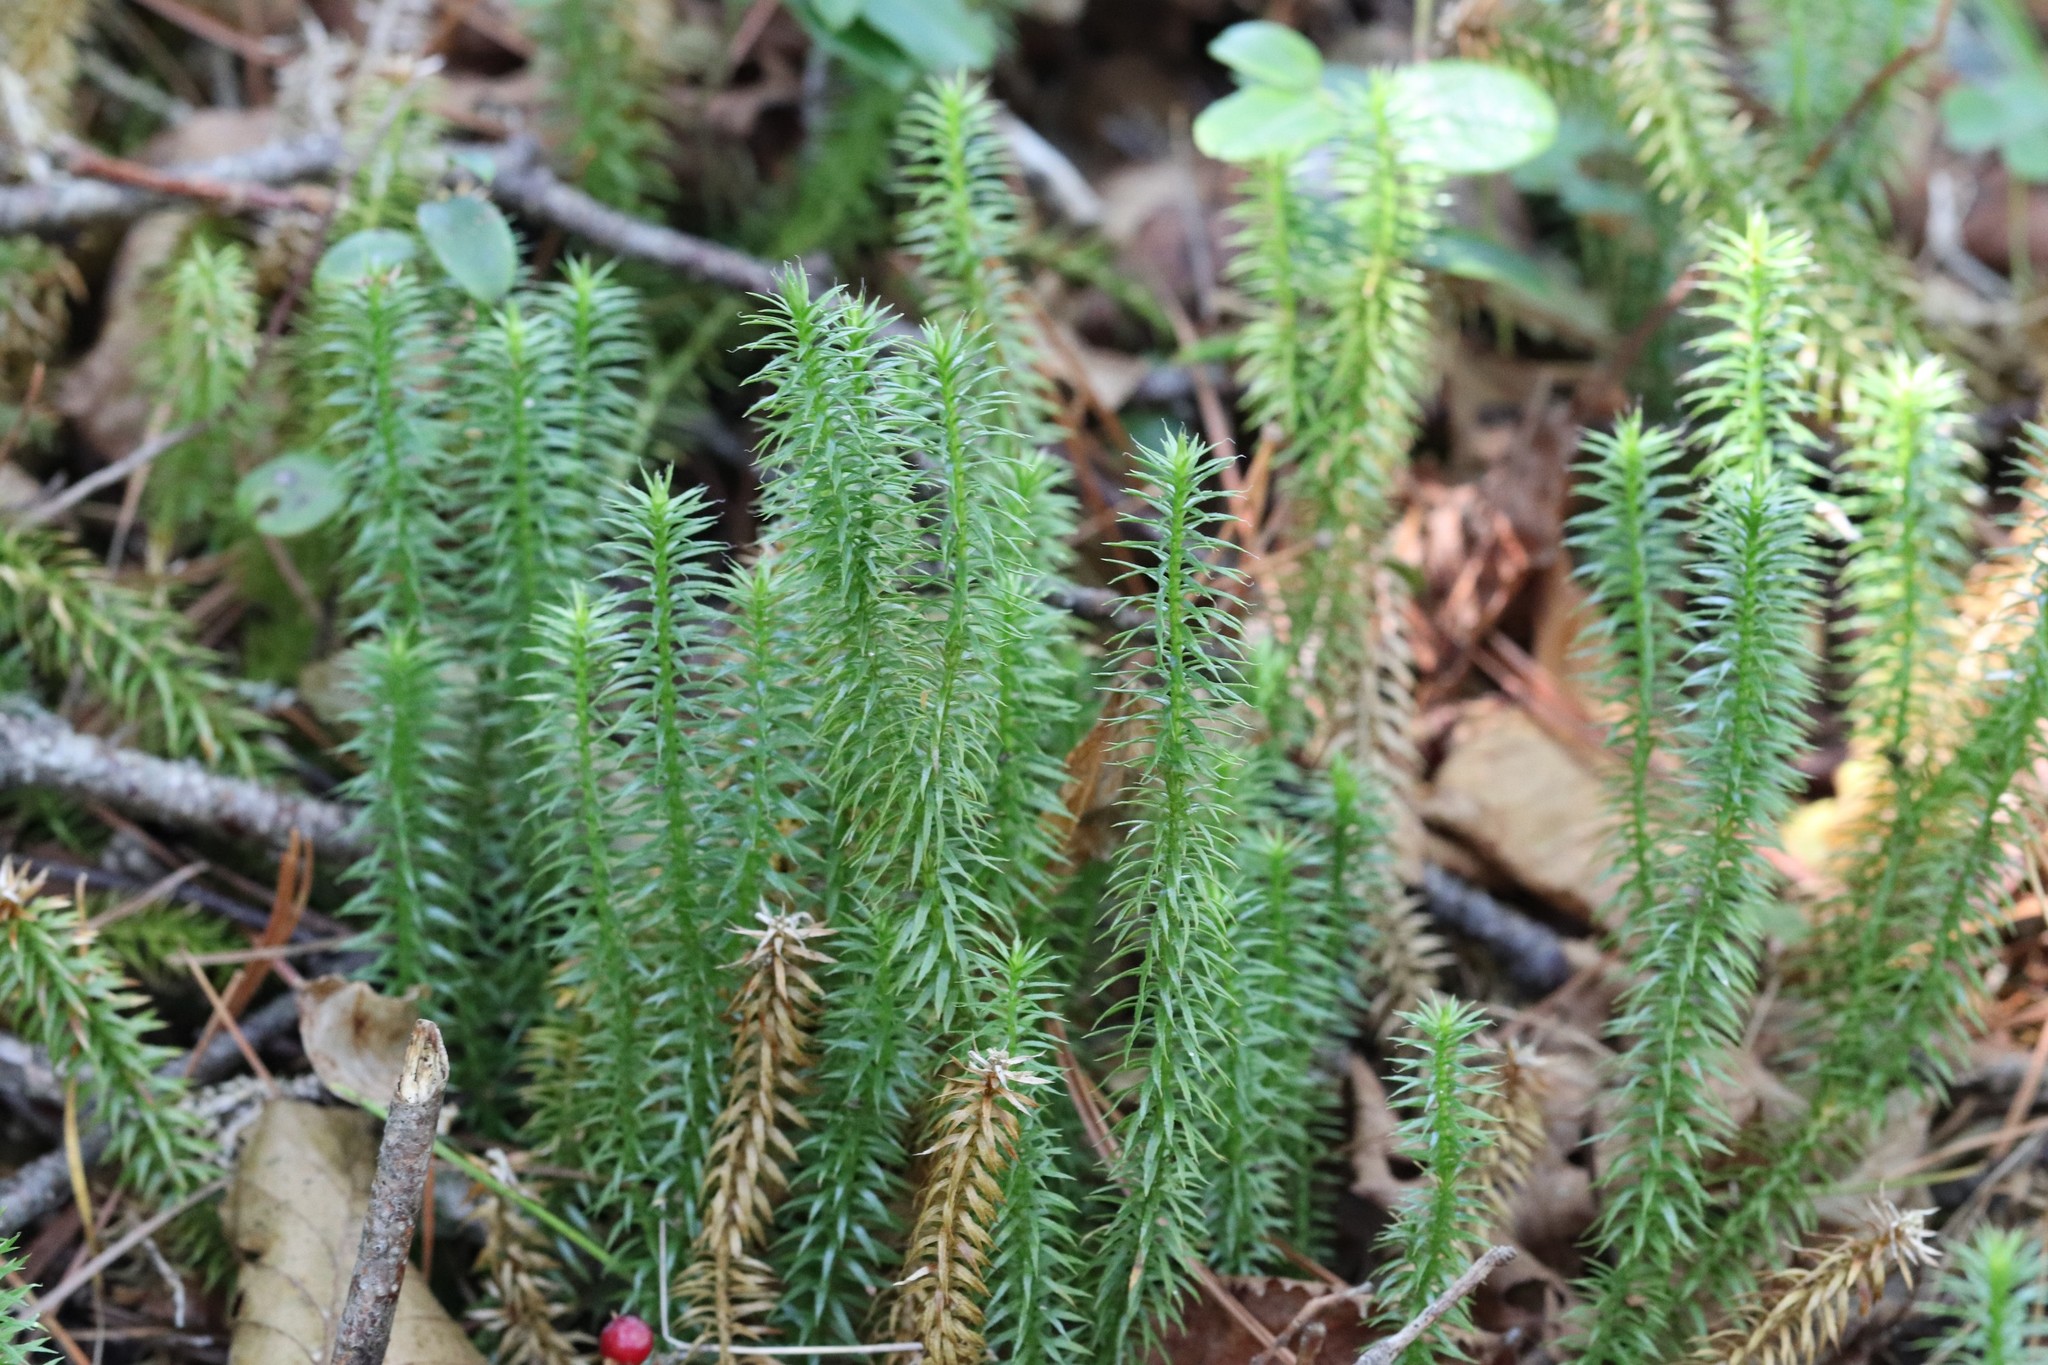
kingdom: Plantae
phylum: Tracheophyta
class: Lycopodiopsida
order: Lycopodiales
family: Lycopodiaceae
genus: Spinulum
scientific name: Spinulum annotinum
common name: Interrupted club-moss
